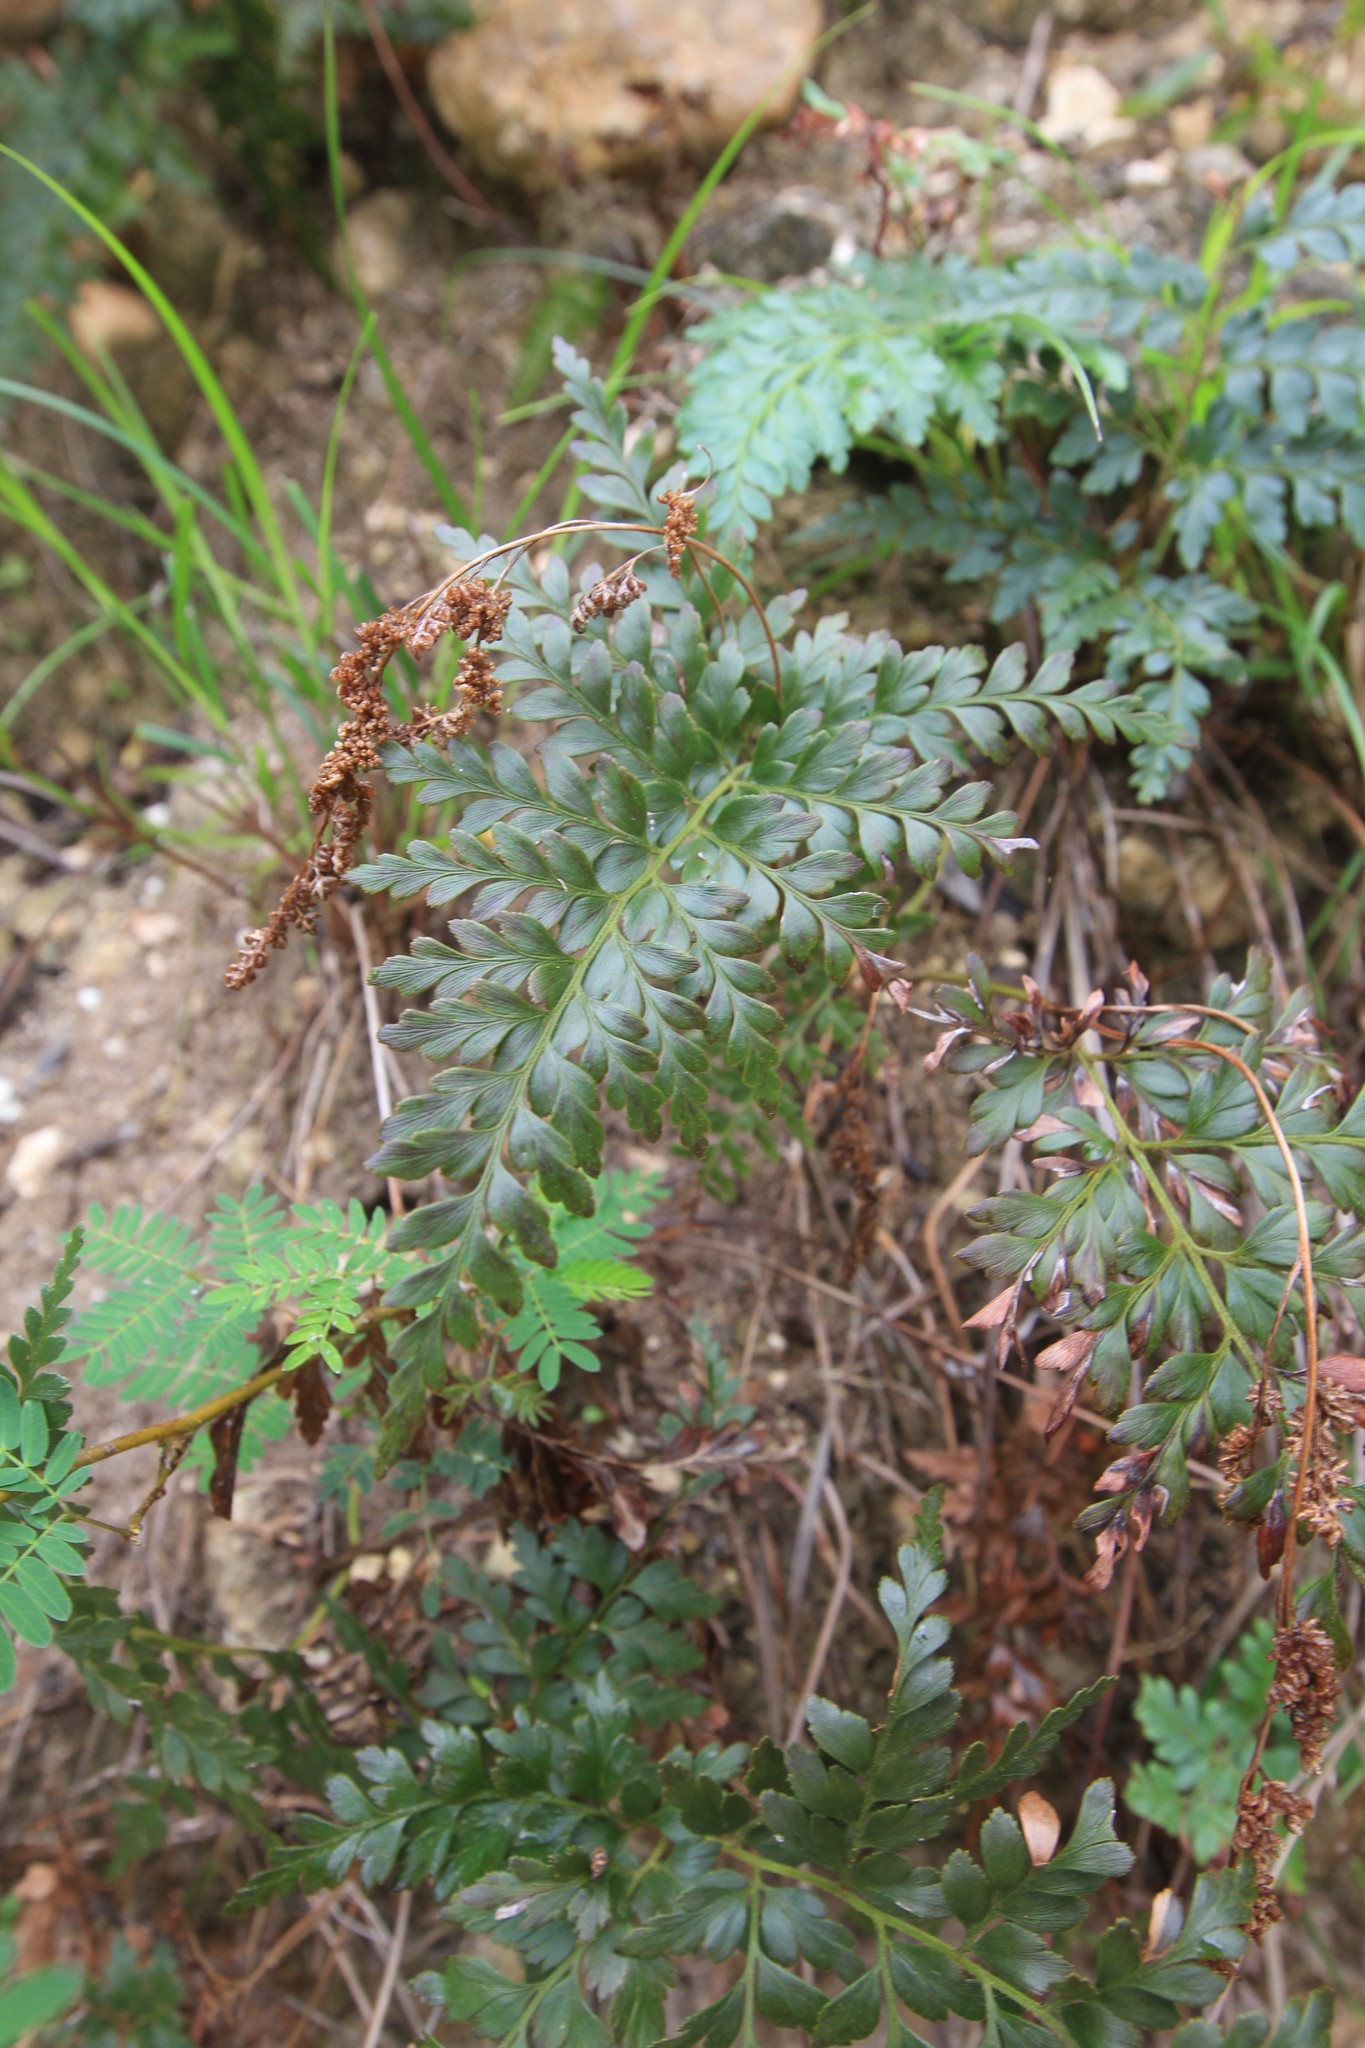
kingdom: Plantae
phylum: Tracheophyta
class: Polypodiopsida
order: Schizaeales
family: Anemiaceae
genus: Anemia
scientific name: Anemia adiantifolia
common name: Pine fern
